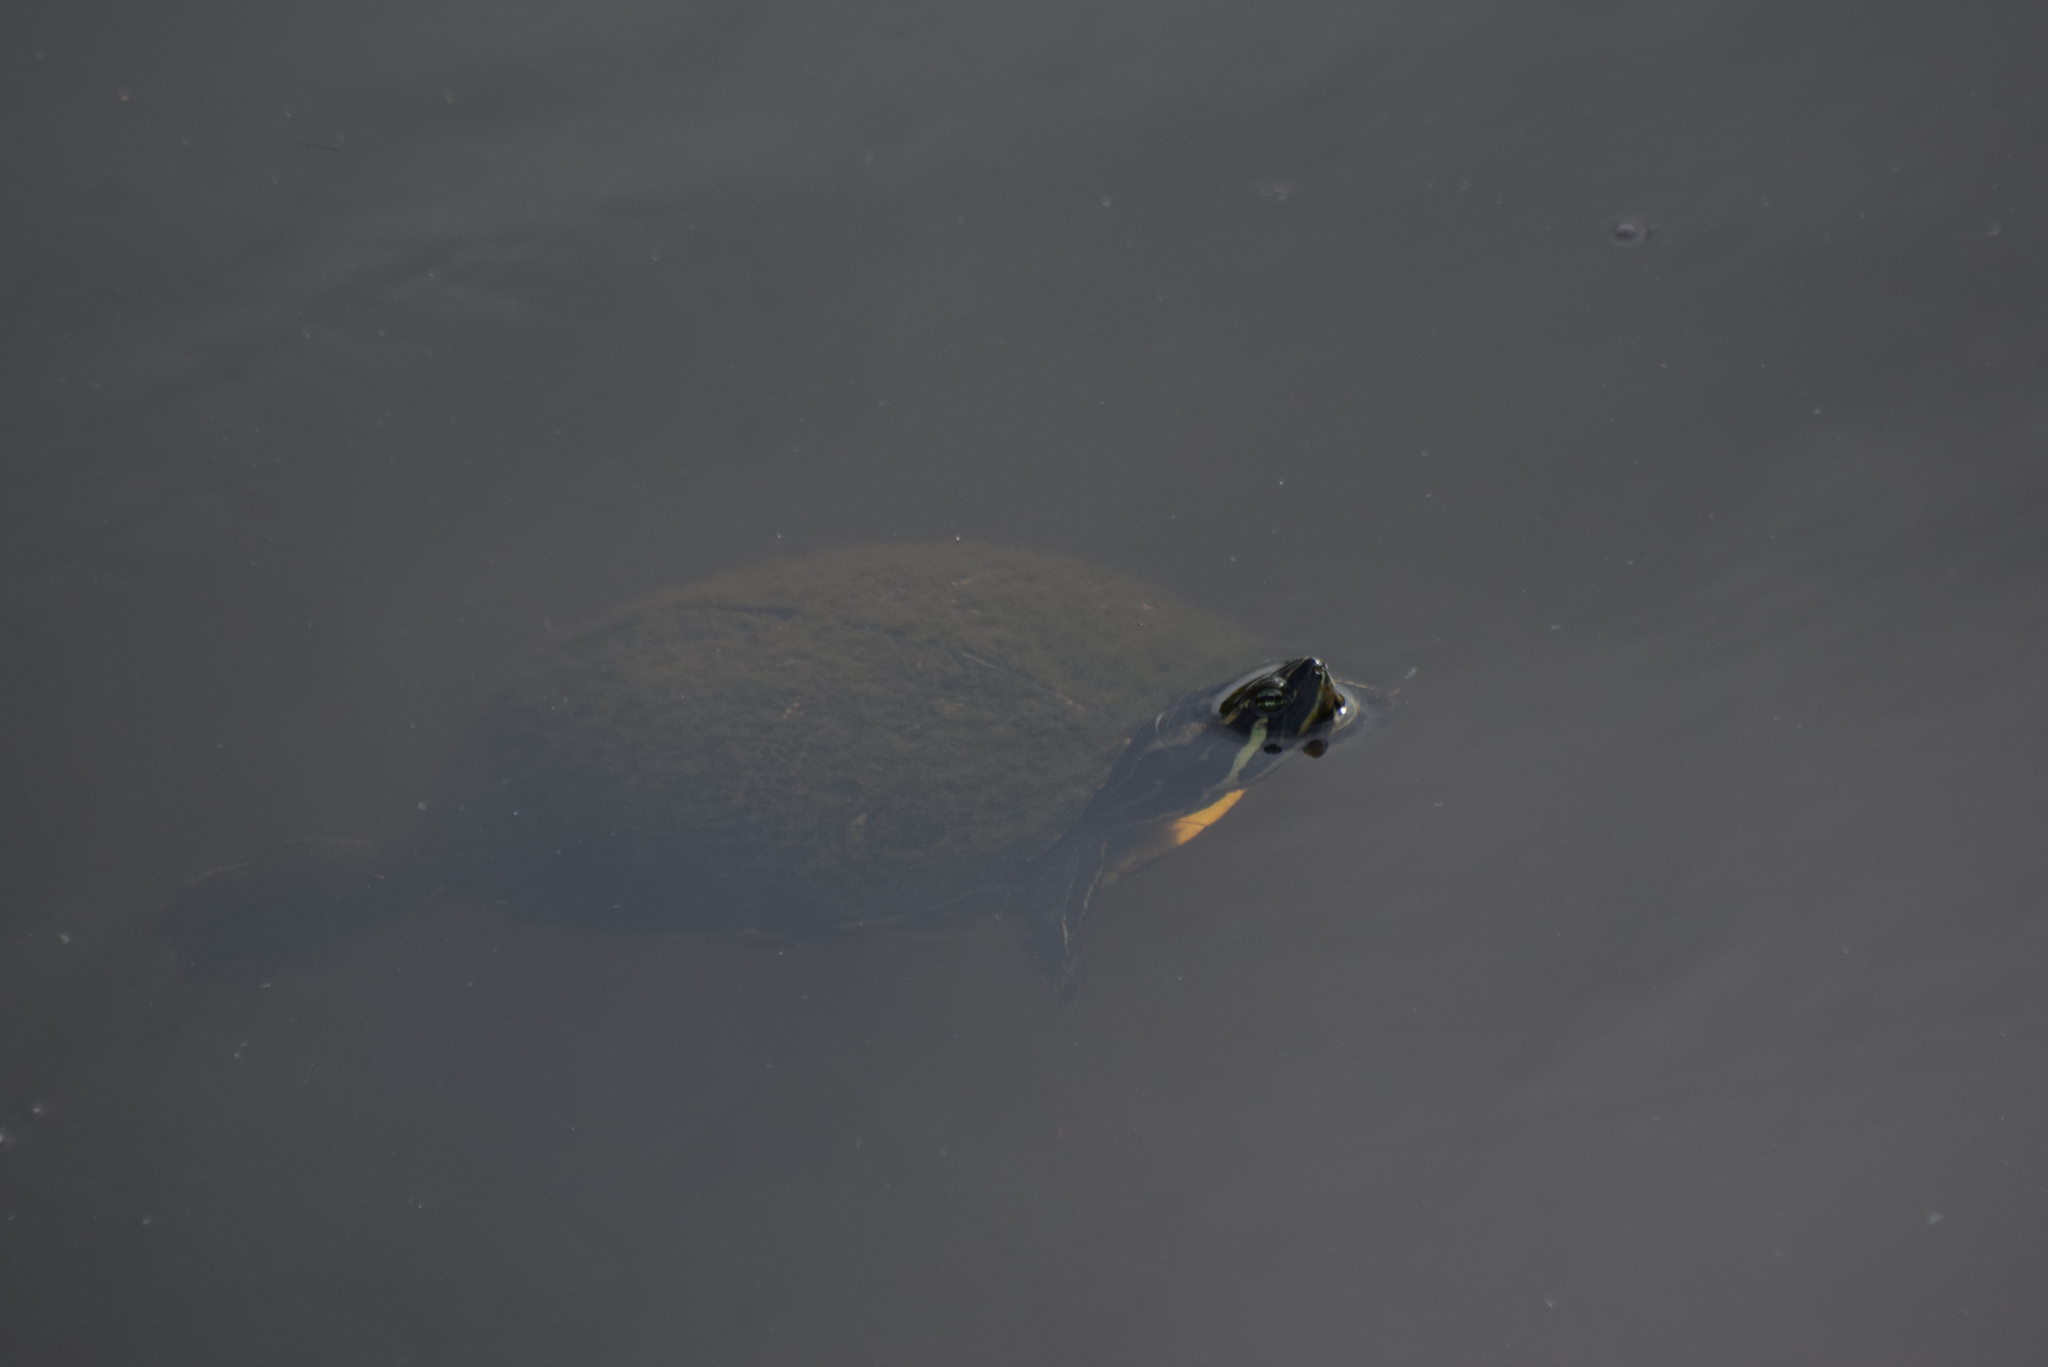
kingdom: Animalia
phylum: Chordata
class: Testudines
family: Emydidae
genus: Trachemys
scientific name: Trachemys scripta
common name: Slider
